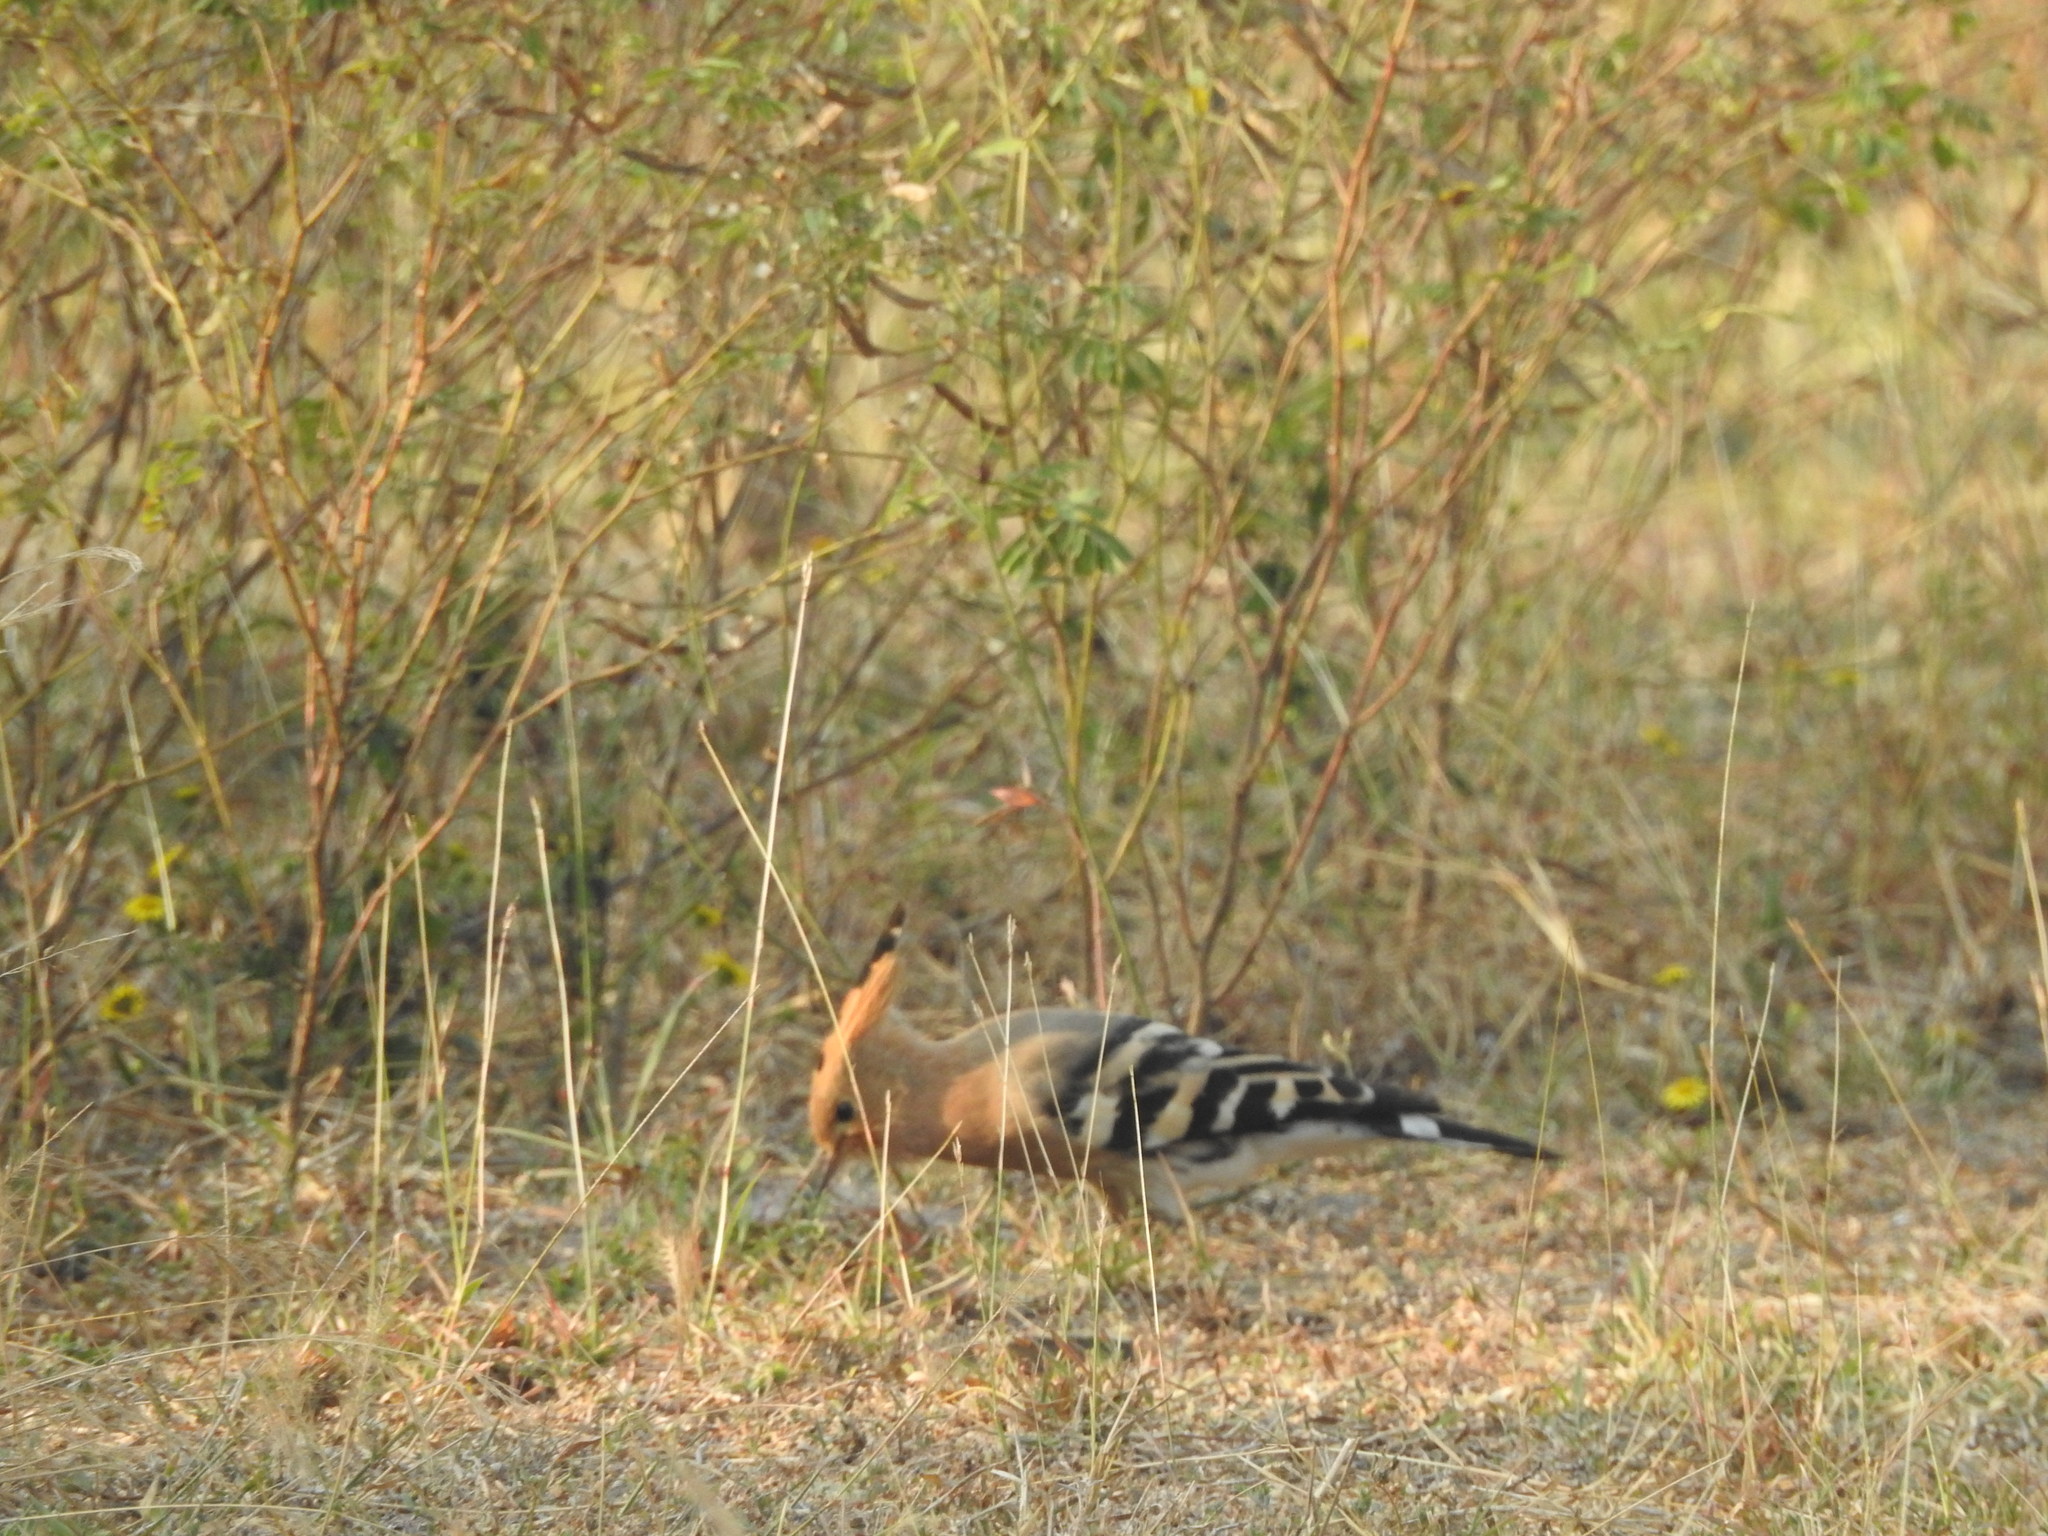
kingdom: Animalia
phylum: Chordata
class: Aves
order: Bucerotiformes
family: Upupidae
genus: Upupa
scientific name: Upupa epops
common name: Eurasian hoopoe
